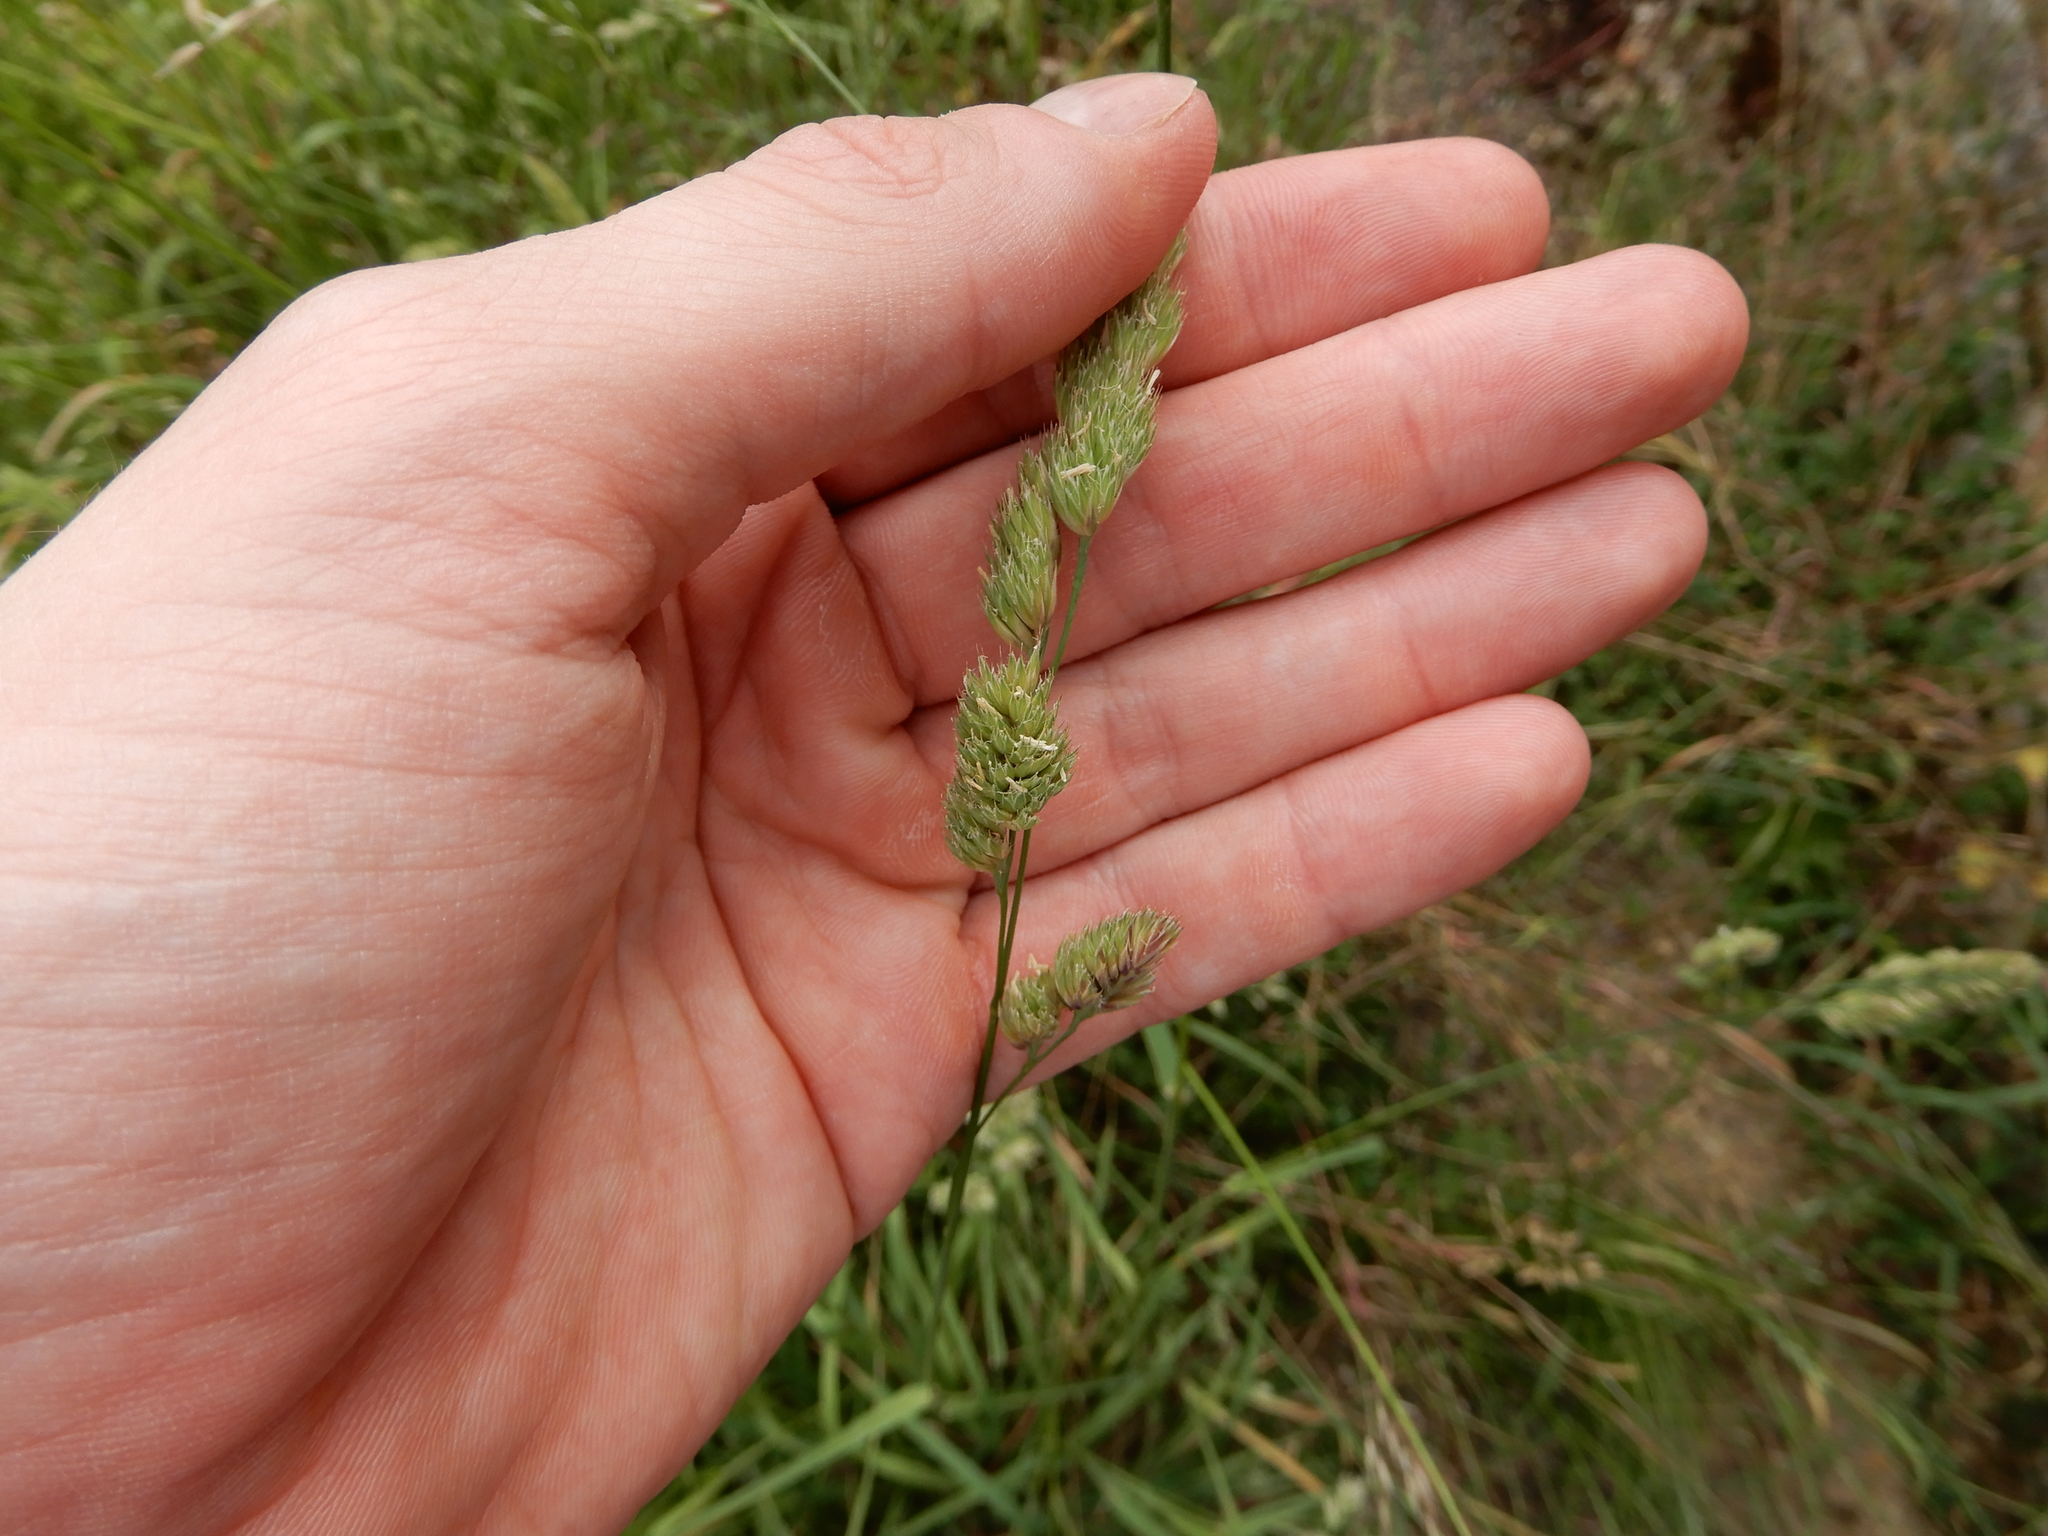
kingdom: Plantae
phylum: Tracheophyta
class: Liliopsida
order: Poales
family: Poaceae
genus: Dactylis
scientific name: Dactylis glomerata
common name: Orchardgrass
